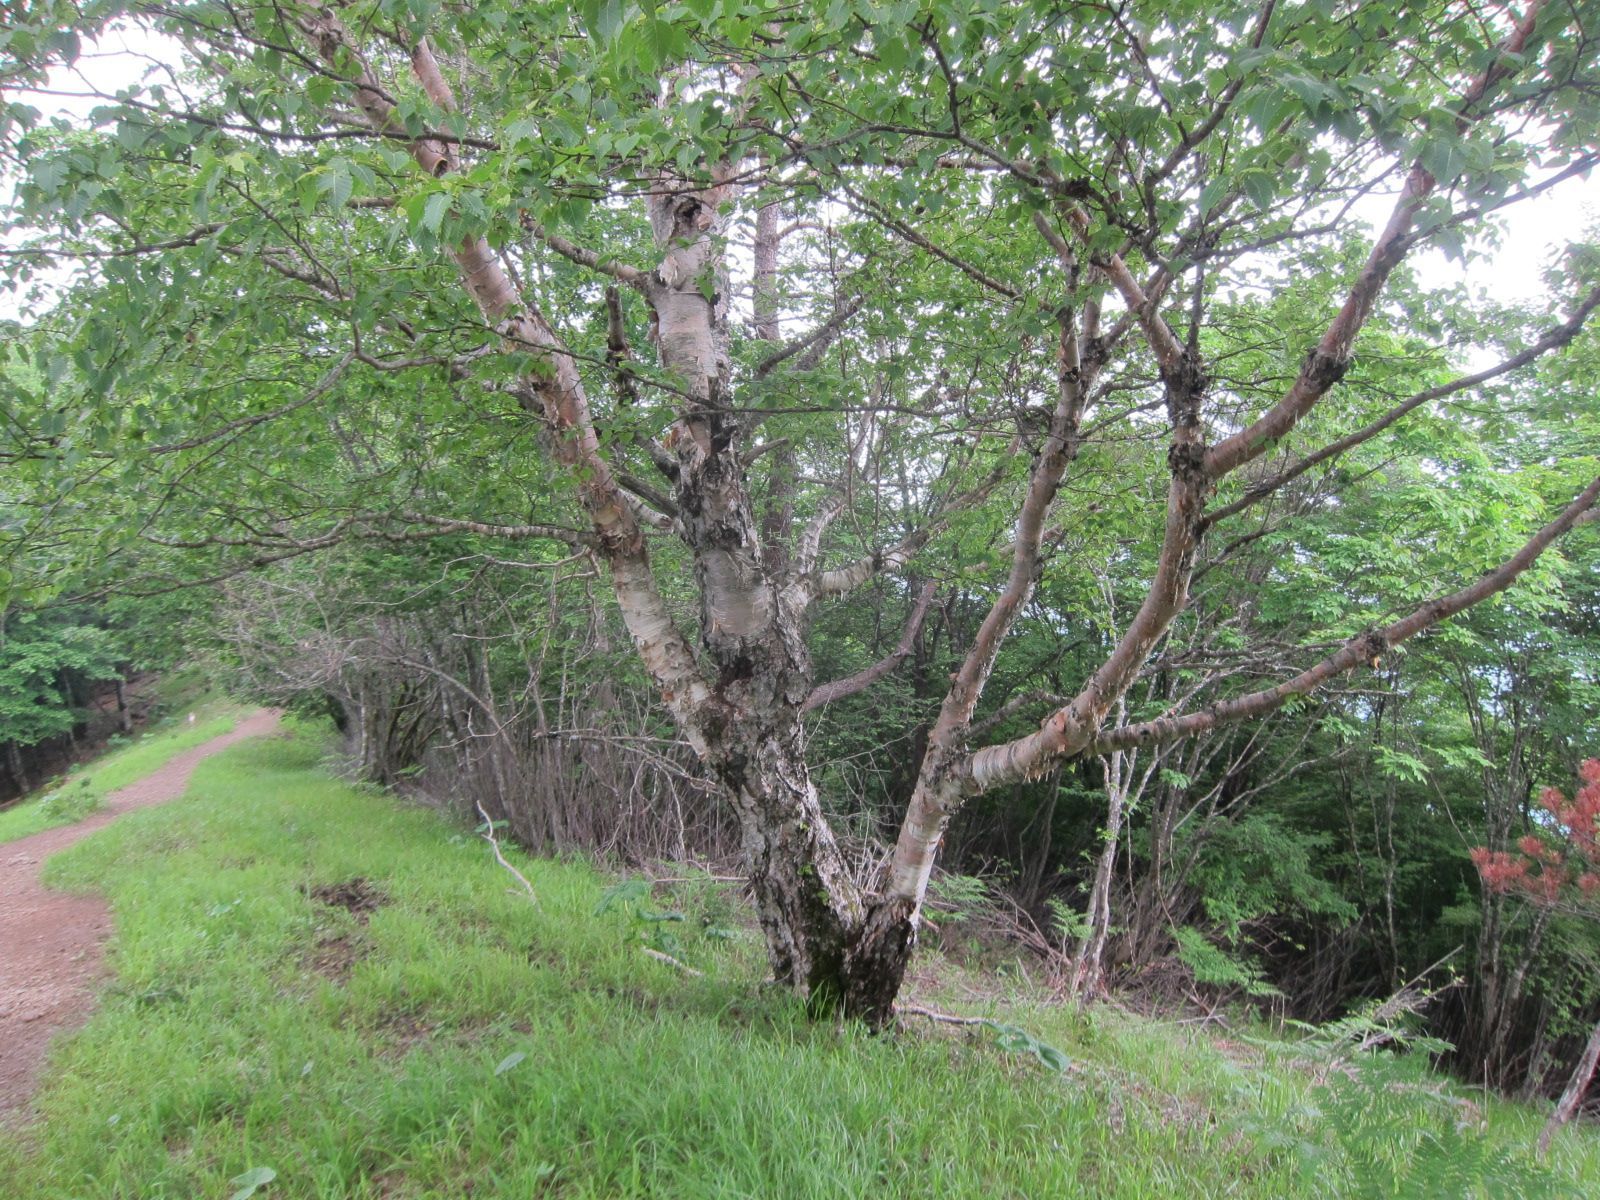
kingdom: Plantae
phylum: Tracheophyta
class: Magnoliopsida
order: Fagales
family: Betulaceae
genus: Betula
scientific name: Betula ermanii
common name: Erman's birch
